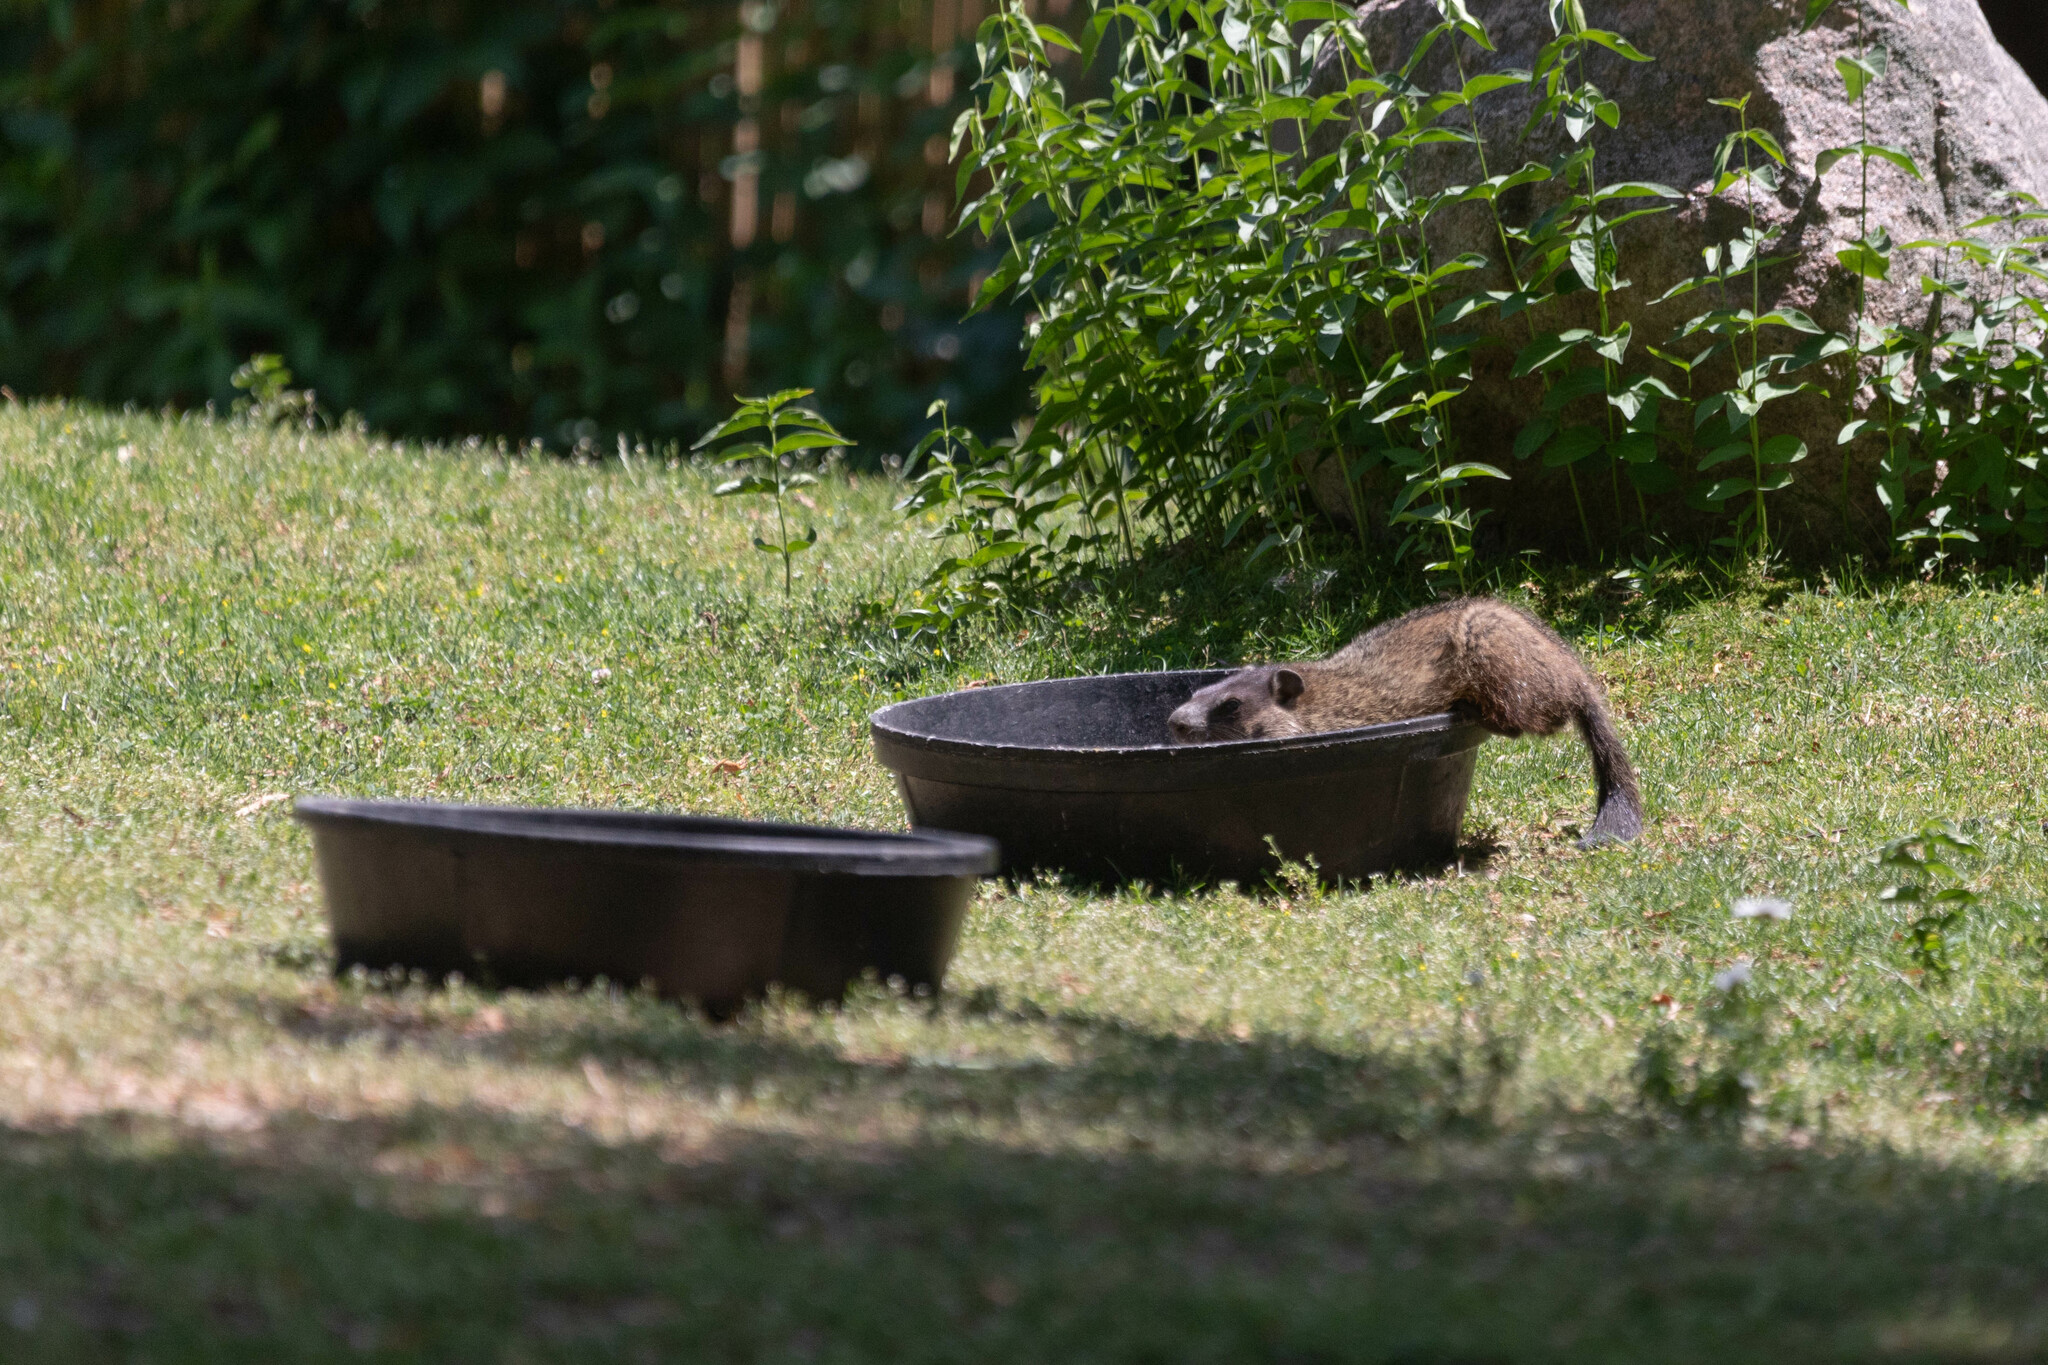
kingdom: Animalia
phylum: Chordata
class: Mammalia
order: Rodentia
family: Sciuridae
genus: Marmota
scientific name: Marmota monax
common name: Groundhog
